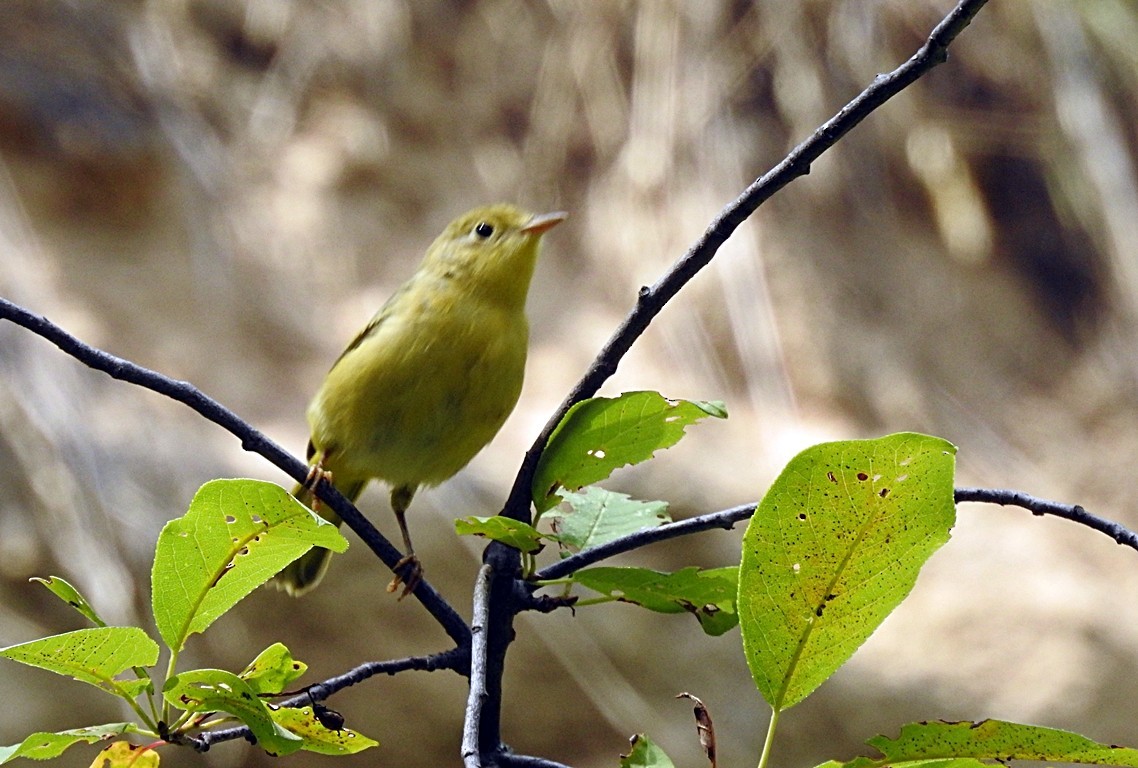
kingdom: Animalia
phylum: Chordata
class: Aves
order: Passeriformes
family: Parulidae
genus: Setophaga
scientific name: Setophaga petechia
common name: Yellow warbler
